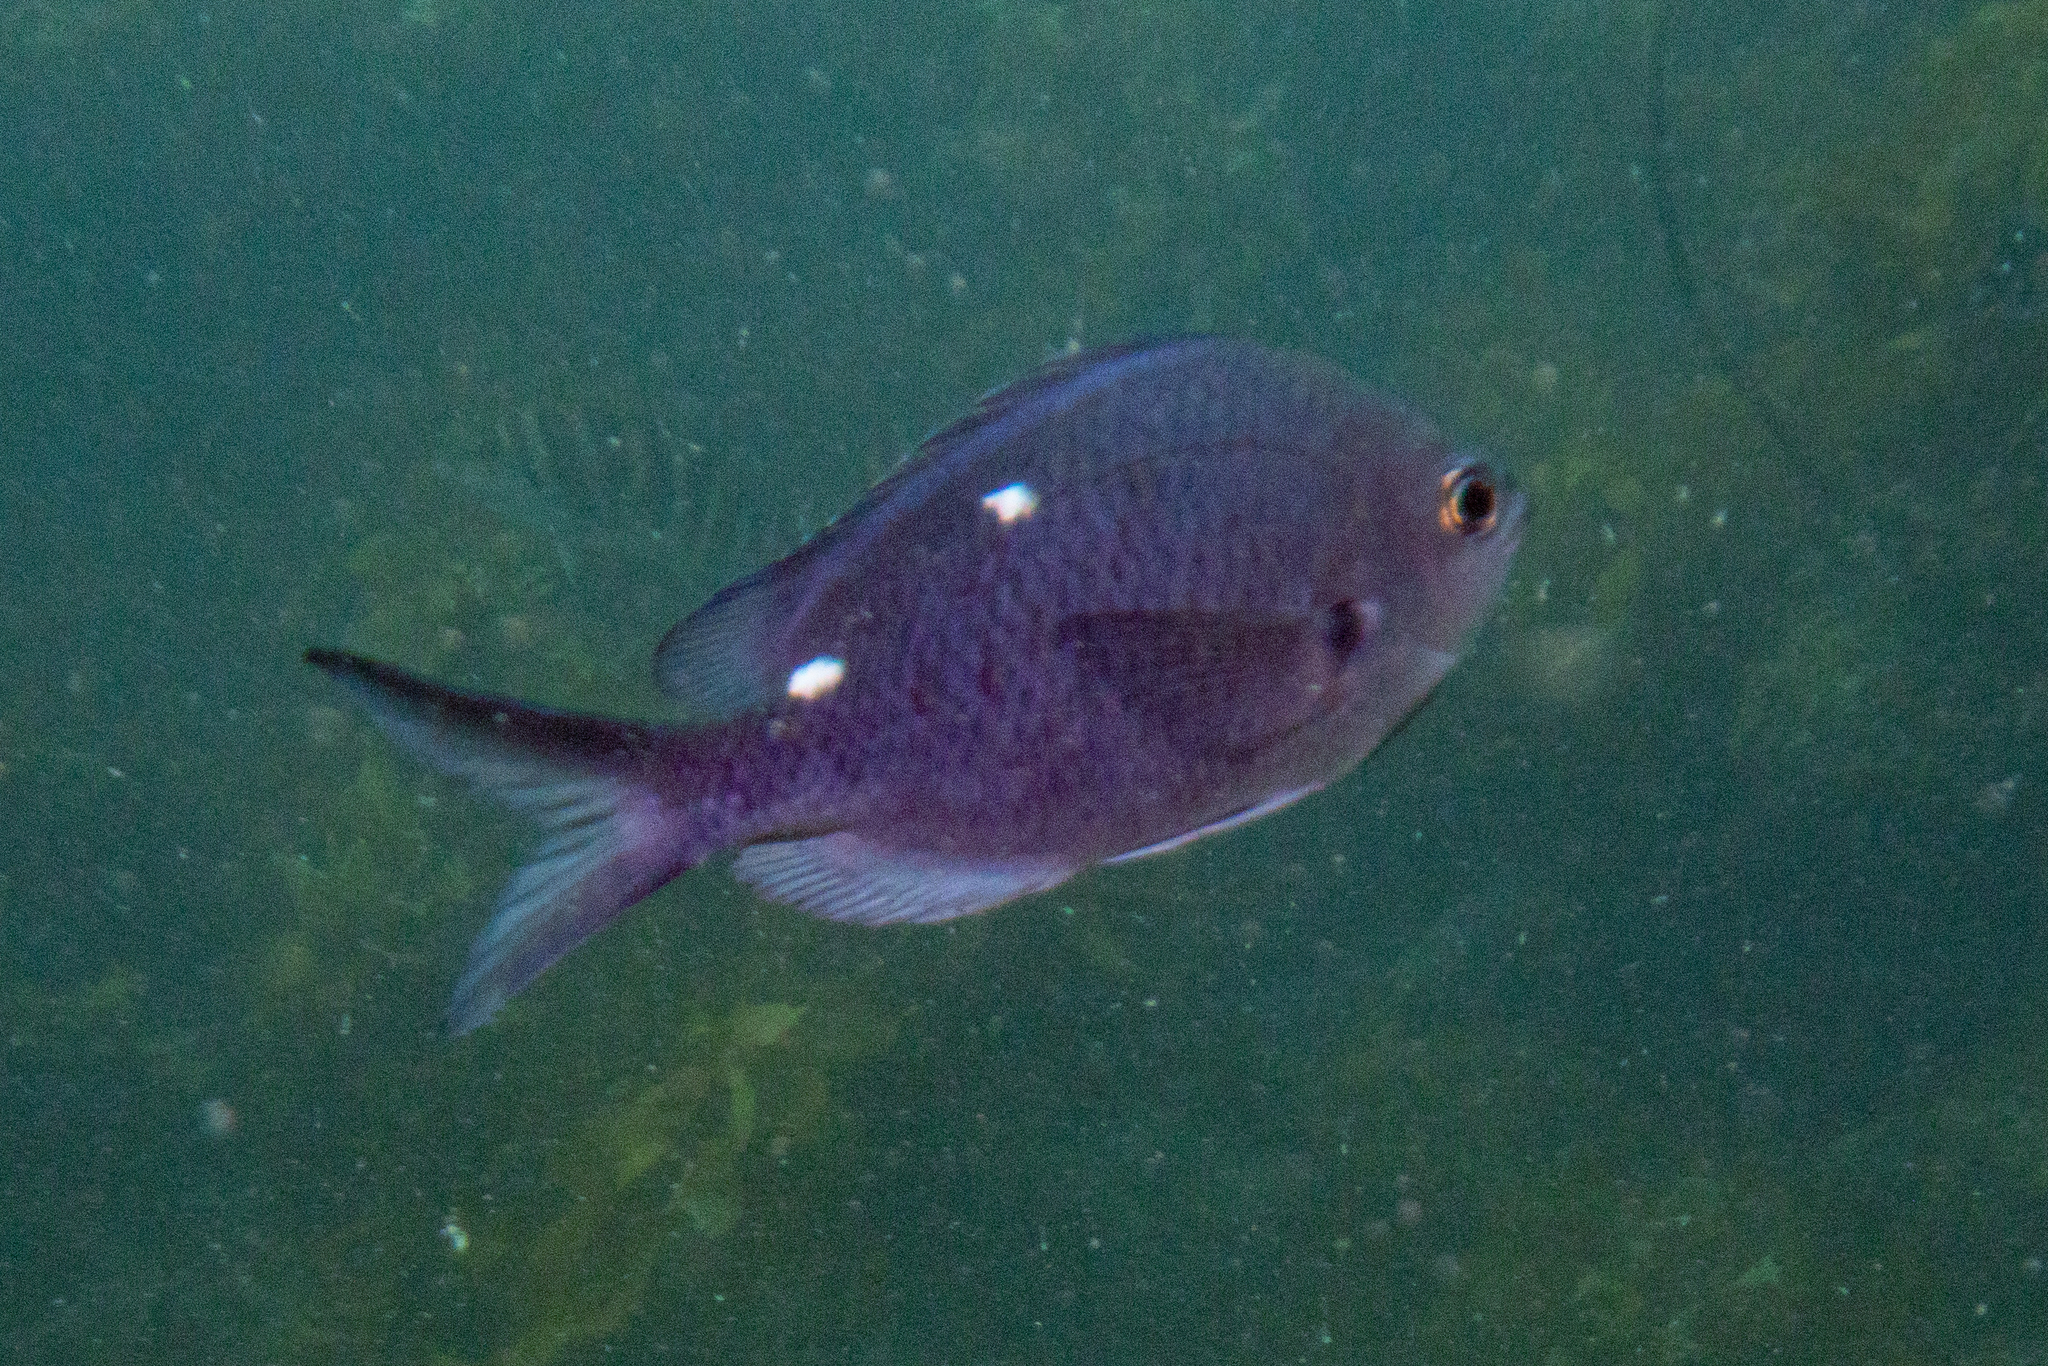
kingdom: Animalia
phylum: Chordata
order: Perciformes
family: Pomacentridae
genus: Chromis
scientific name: Chromis dispilus
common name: Demoiselle
